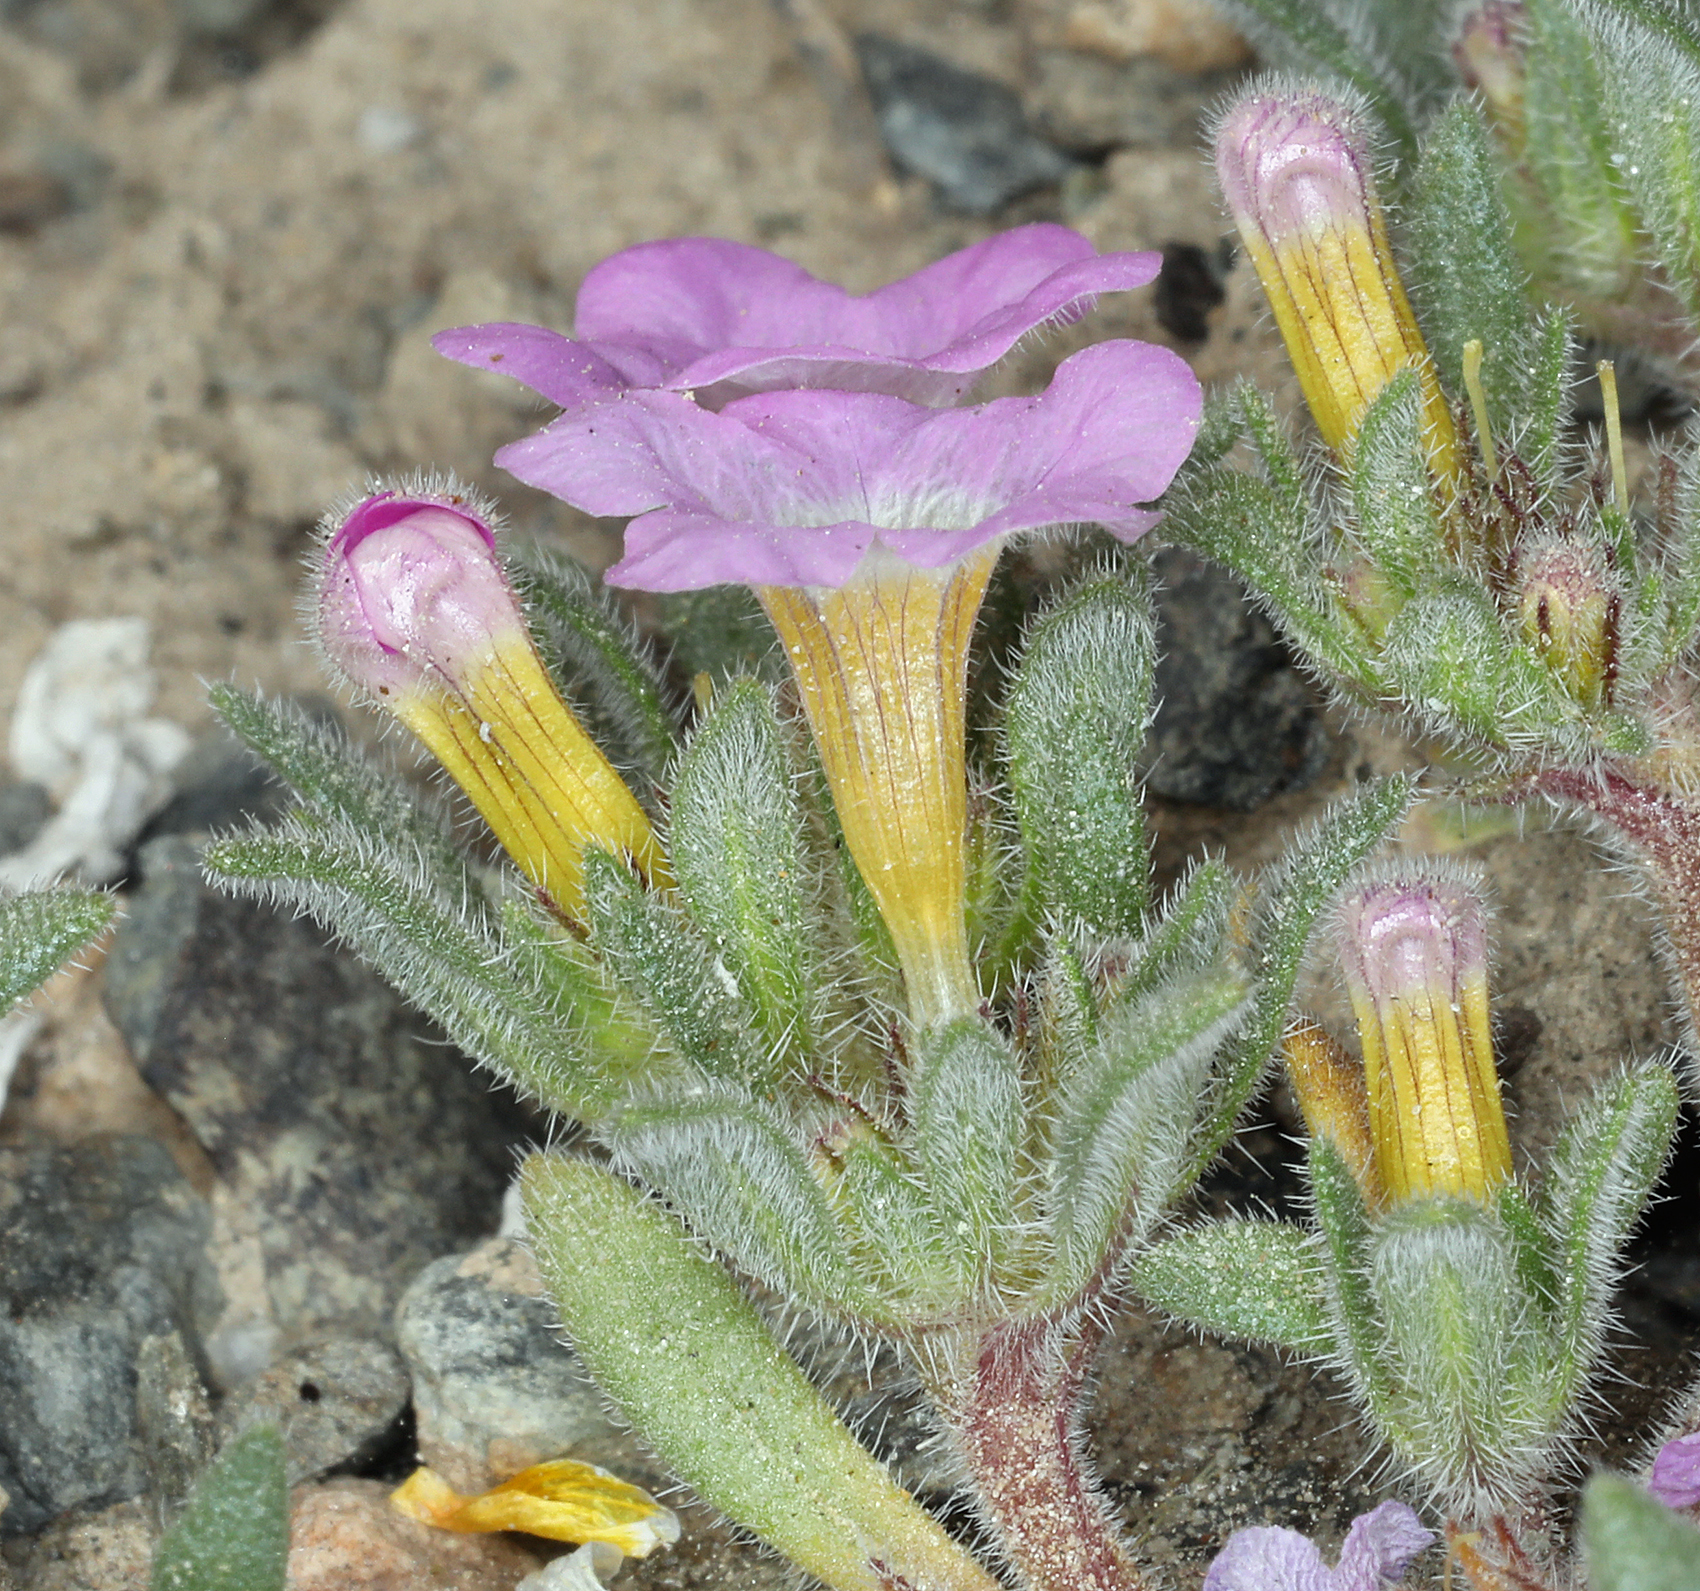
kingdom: Plantae
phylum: Tracheophyta
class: Magnoliopsida
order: Boraginales
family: Namaceae
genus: Nama
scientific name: Nama aretioides
